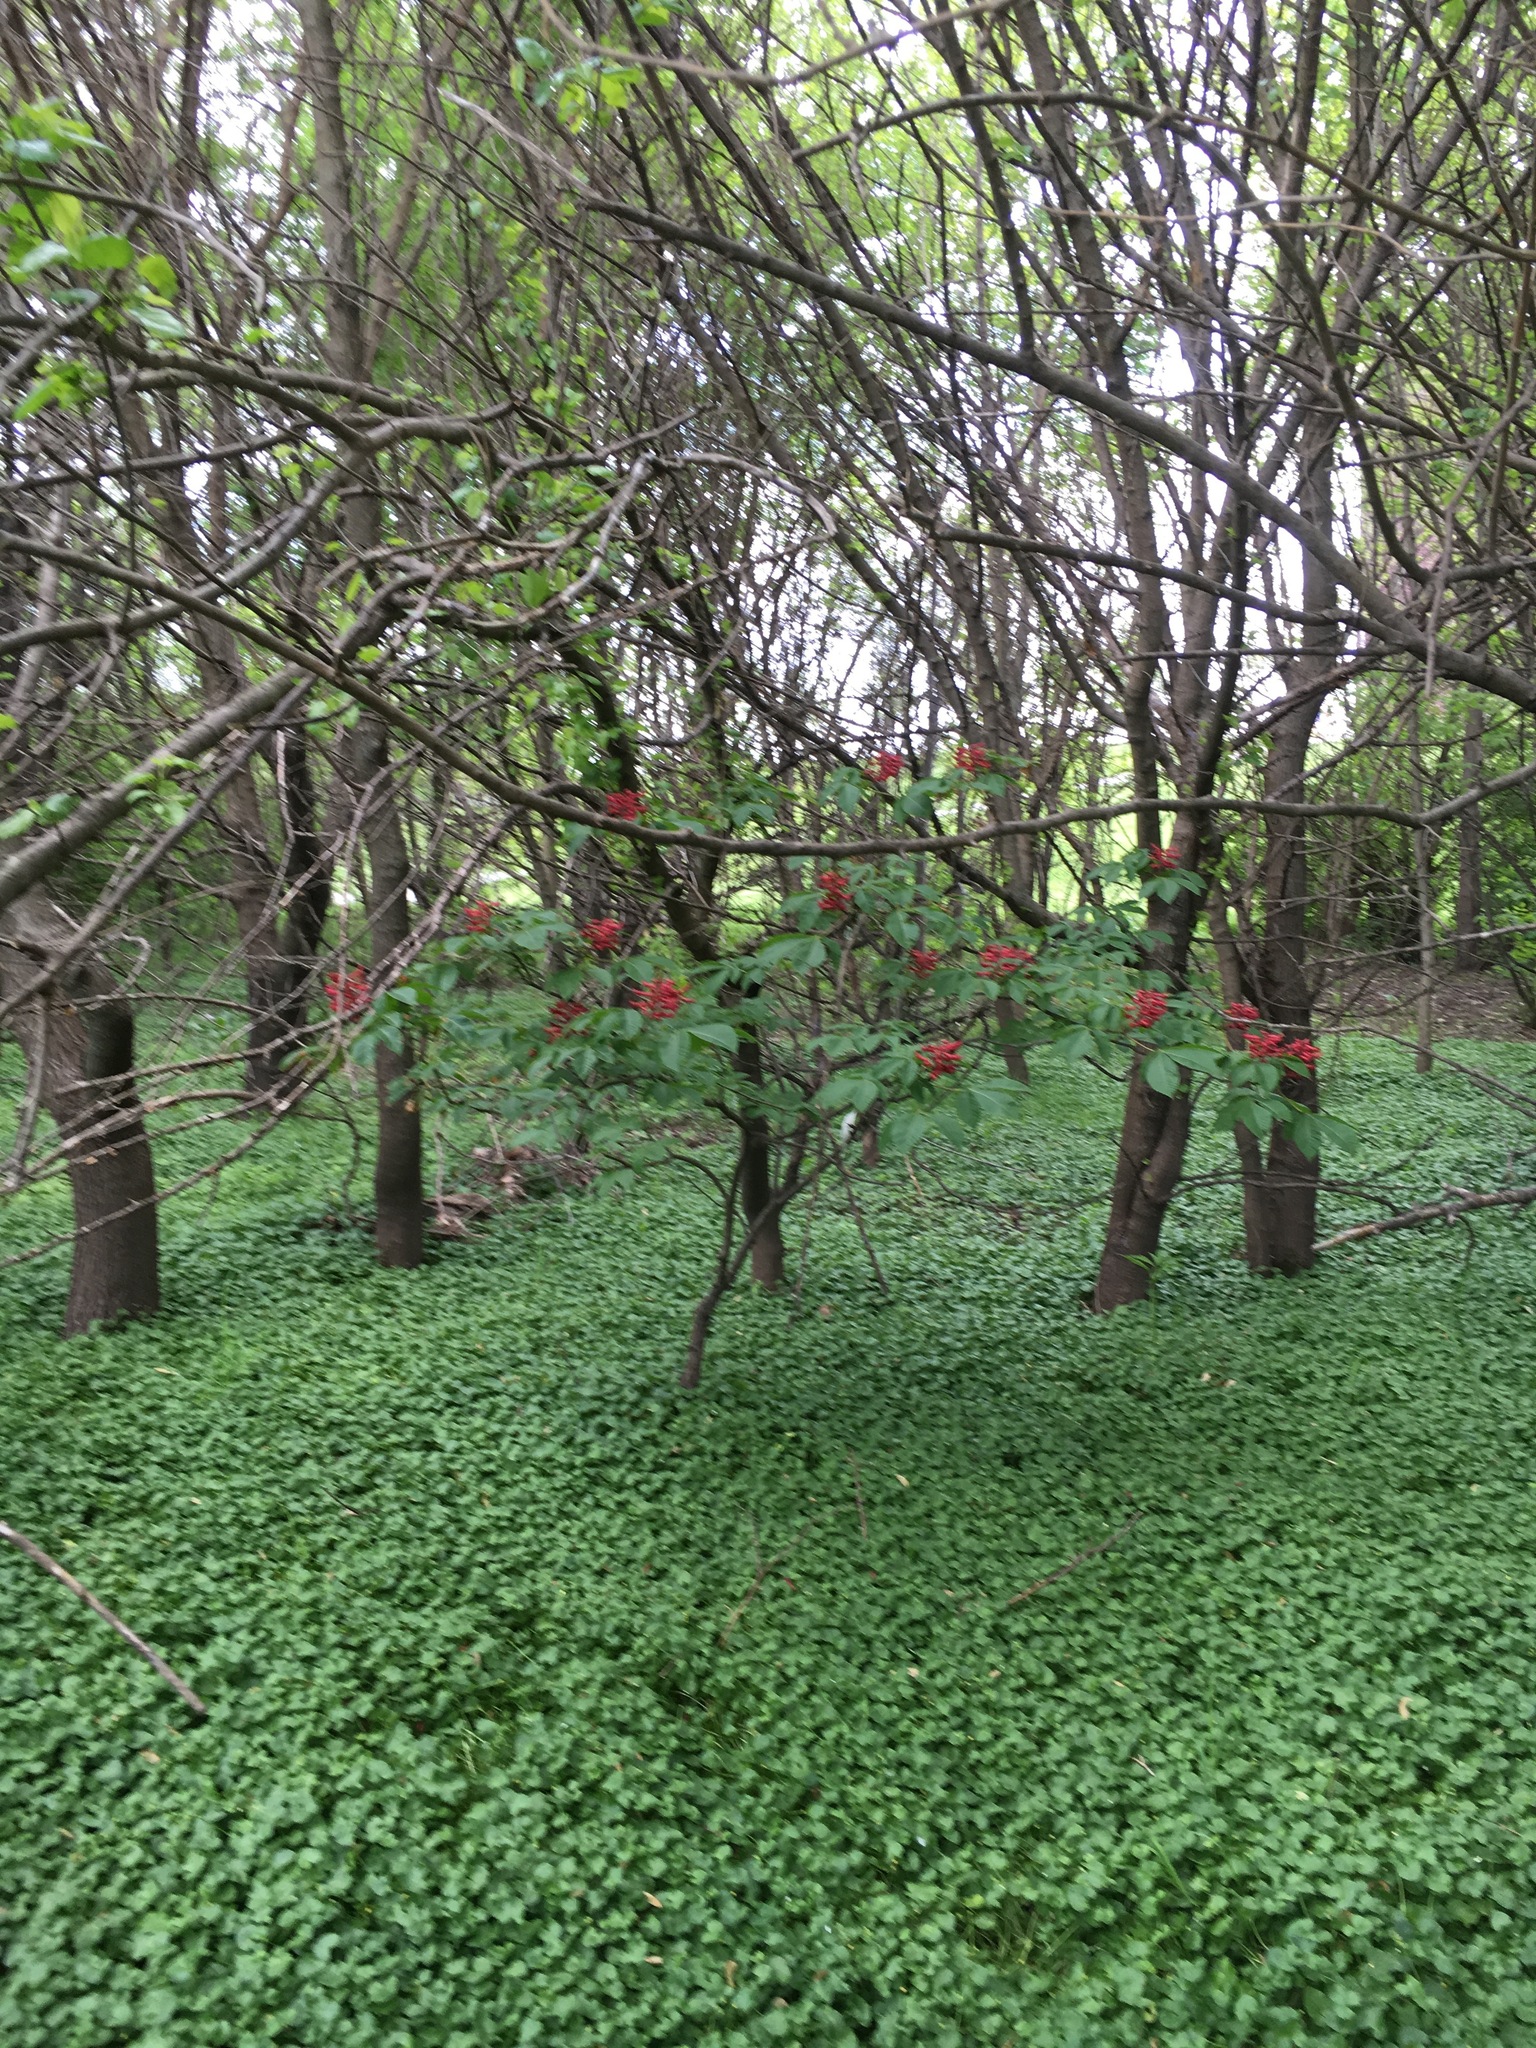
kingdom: Plantae
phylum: Tracheophyta
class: Magnoliopsida
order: Sapindales
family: Sapindaceae
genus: Aesculus
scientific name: Aesculus pavia
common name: Red buckeye
